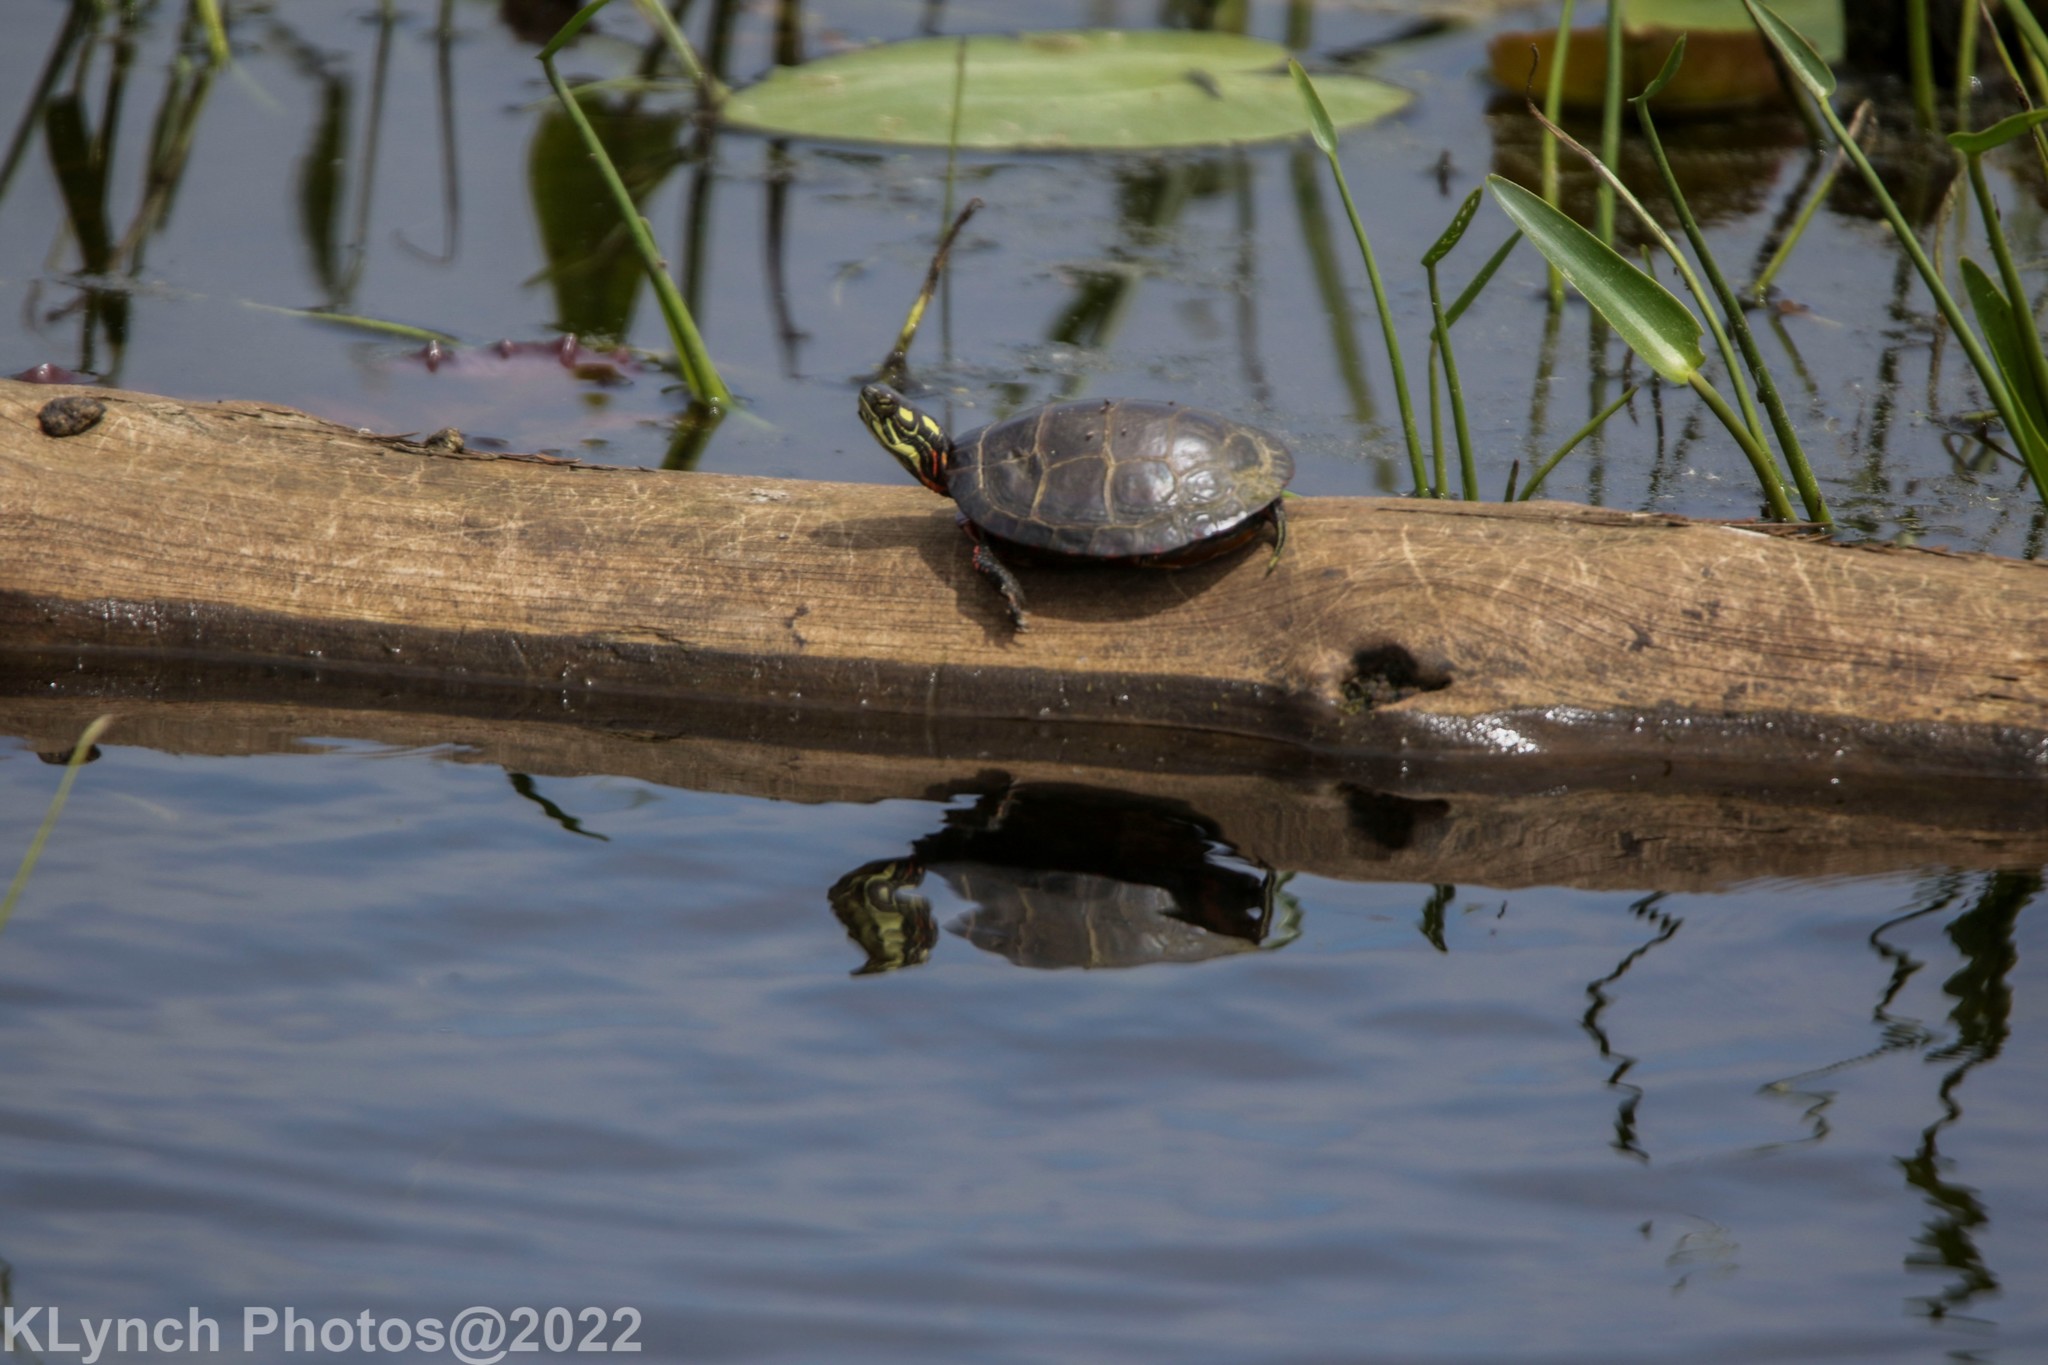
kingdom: Animalia
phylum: Chordata
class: Testudines
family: Emydidae
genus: Chrysemys
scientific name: Chrysemys picta
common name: Painted turtle
